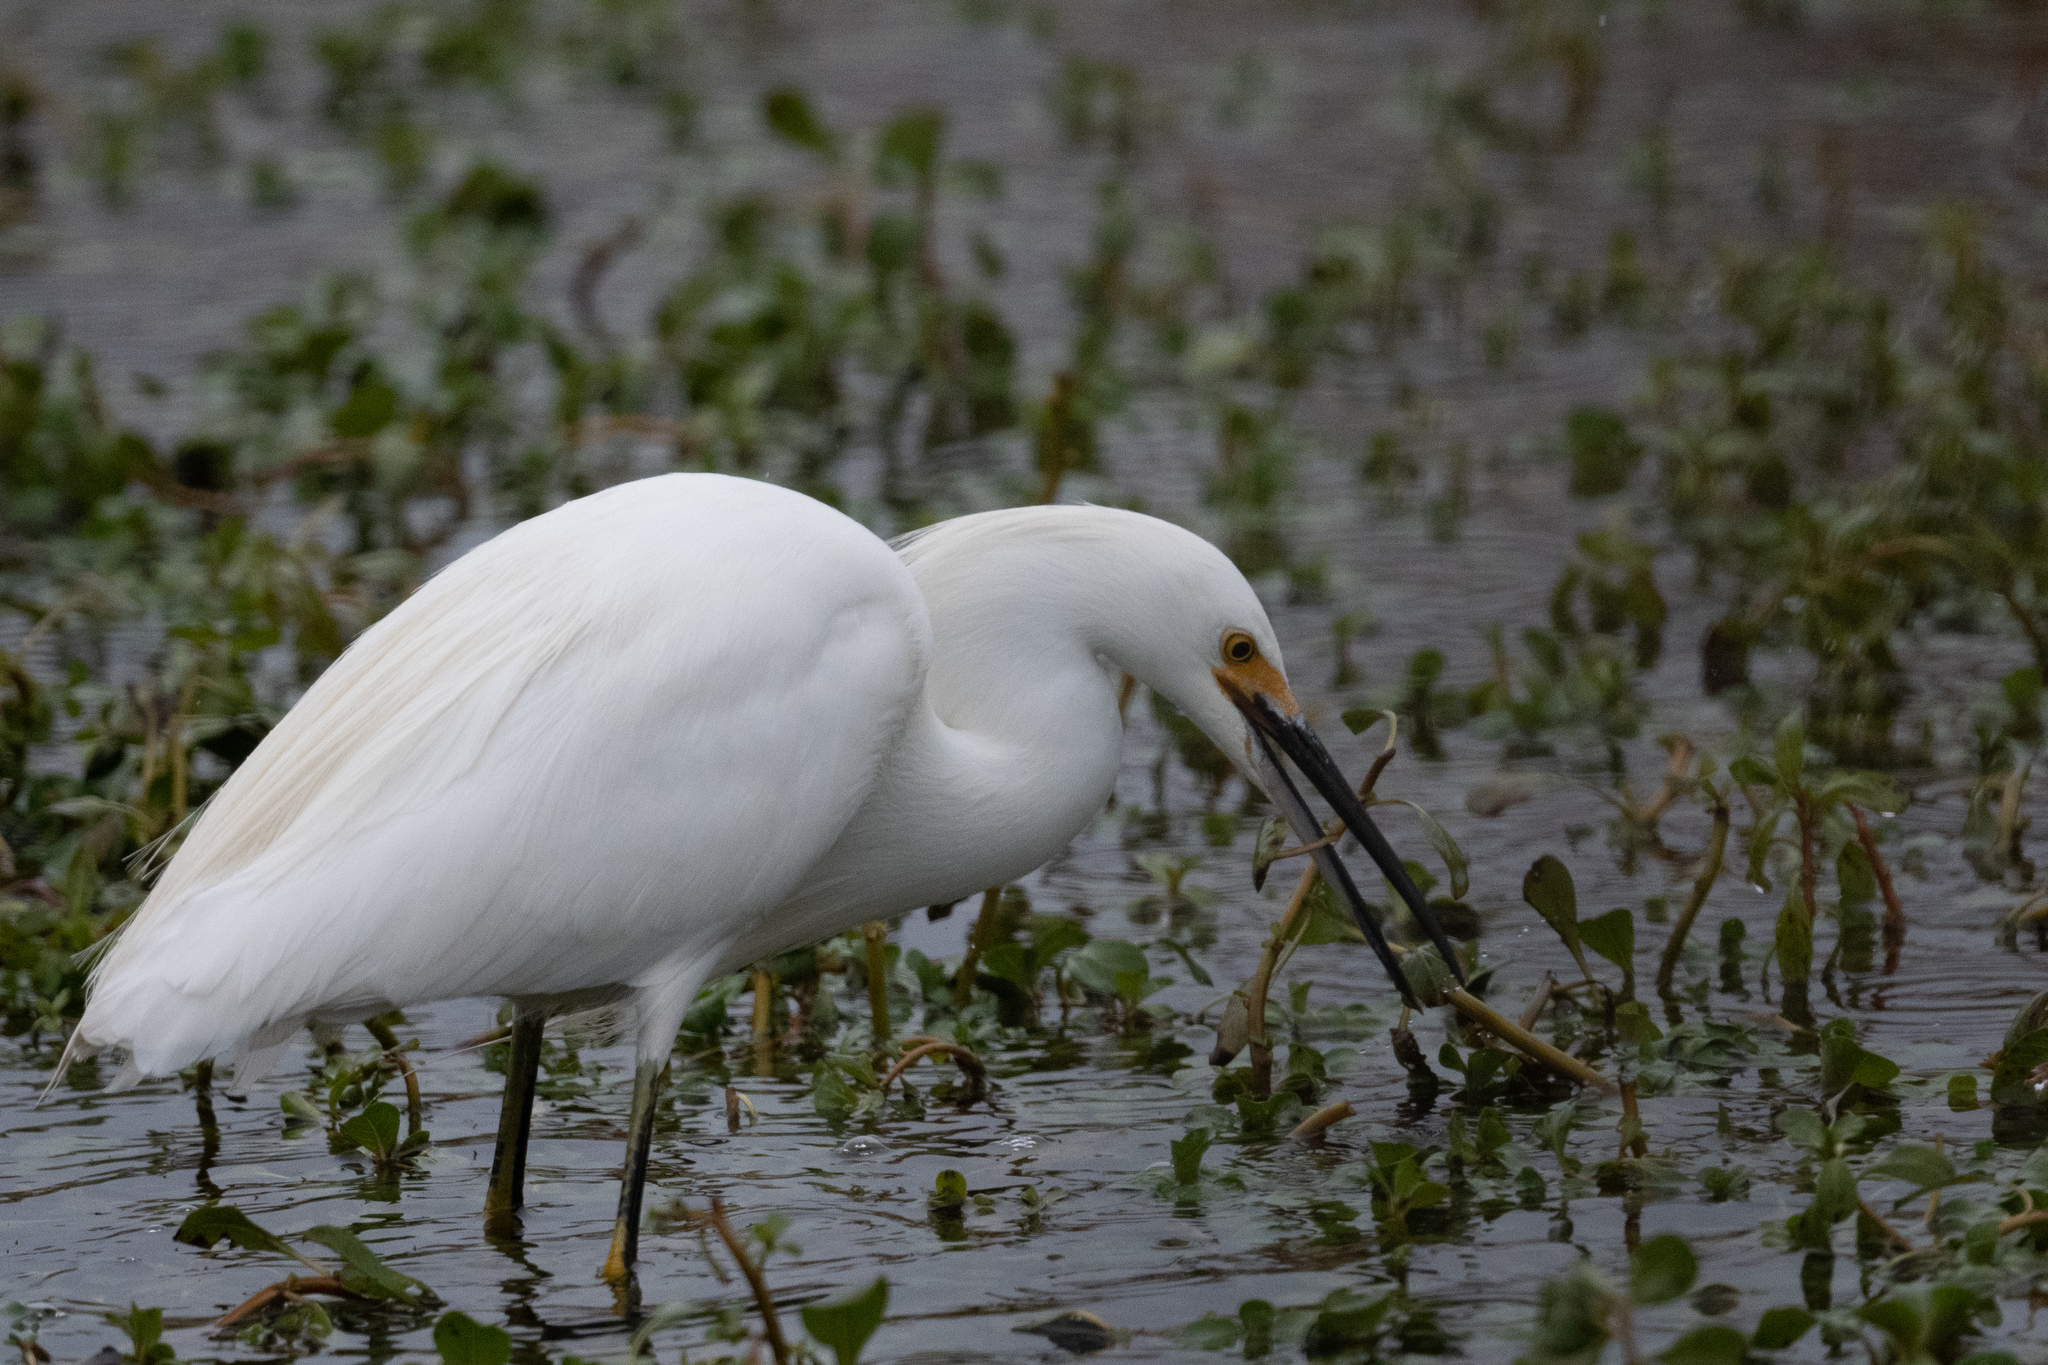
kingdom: Animalia
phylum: Chordata
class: Aves
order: Pelecaniformes
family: Ardeidae
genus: Egretta
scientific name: Egretta thula
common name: Snowy egret
